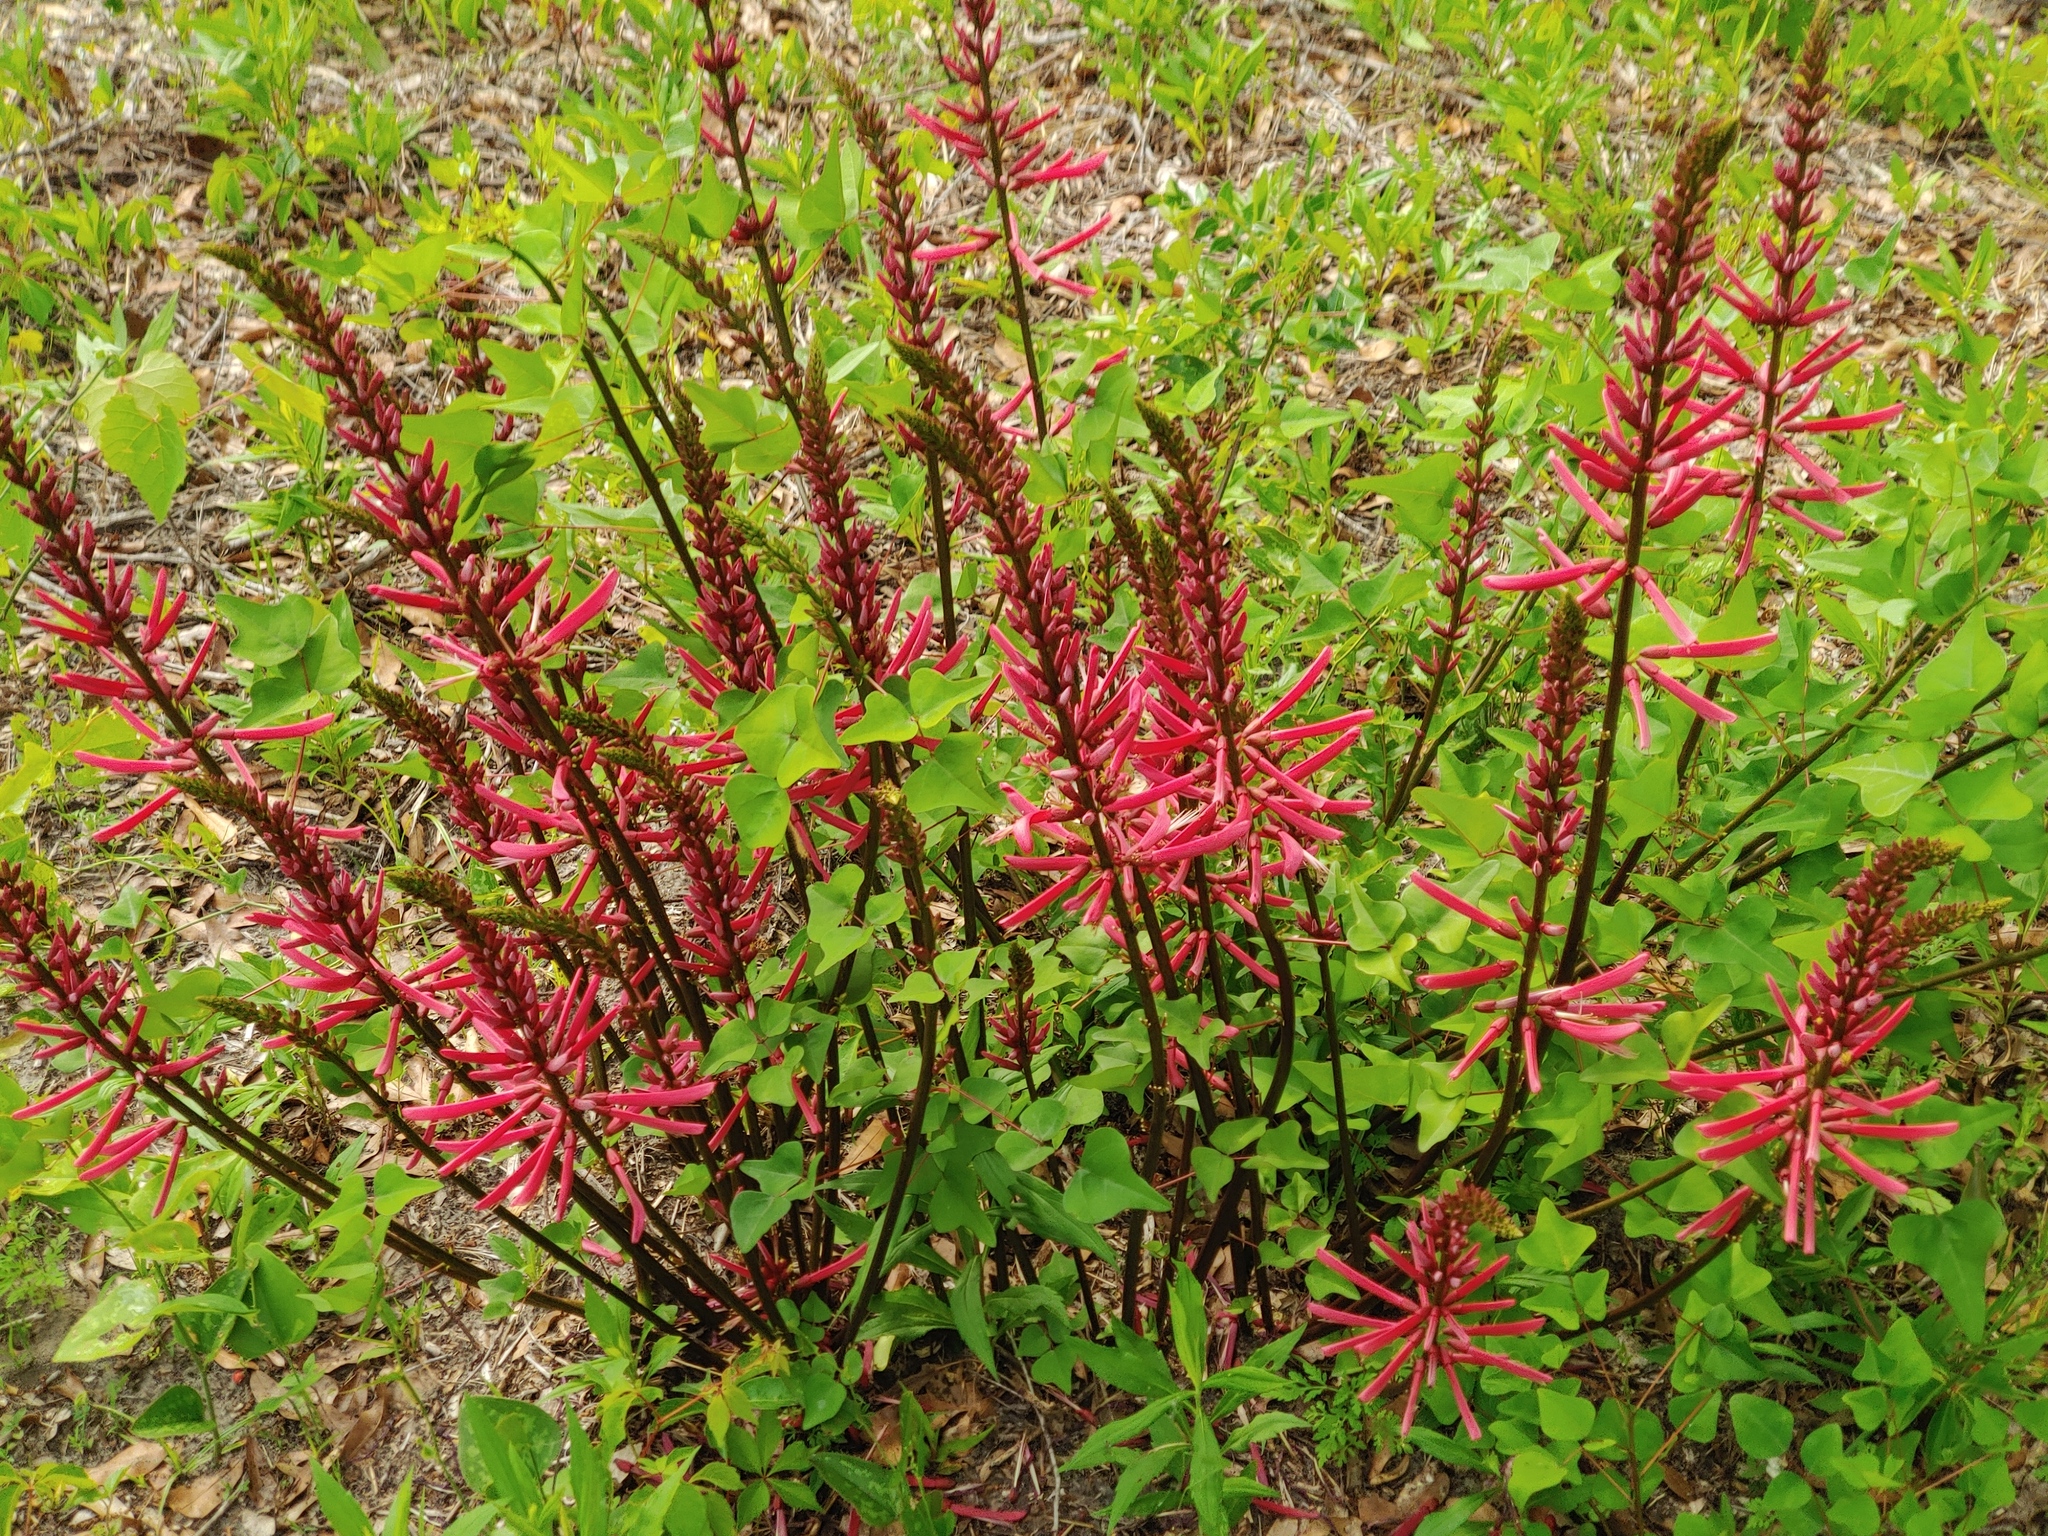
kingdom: Plantae
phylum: Tracheophyta
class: Magnoliopsida
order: Fabales
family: Fabaceae
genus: Erythrina
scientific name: Erythrina herbacea
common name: Coral-bean
